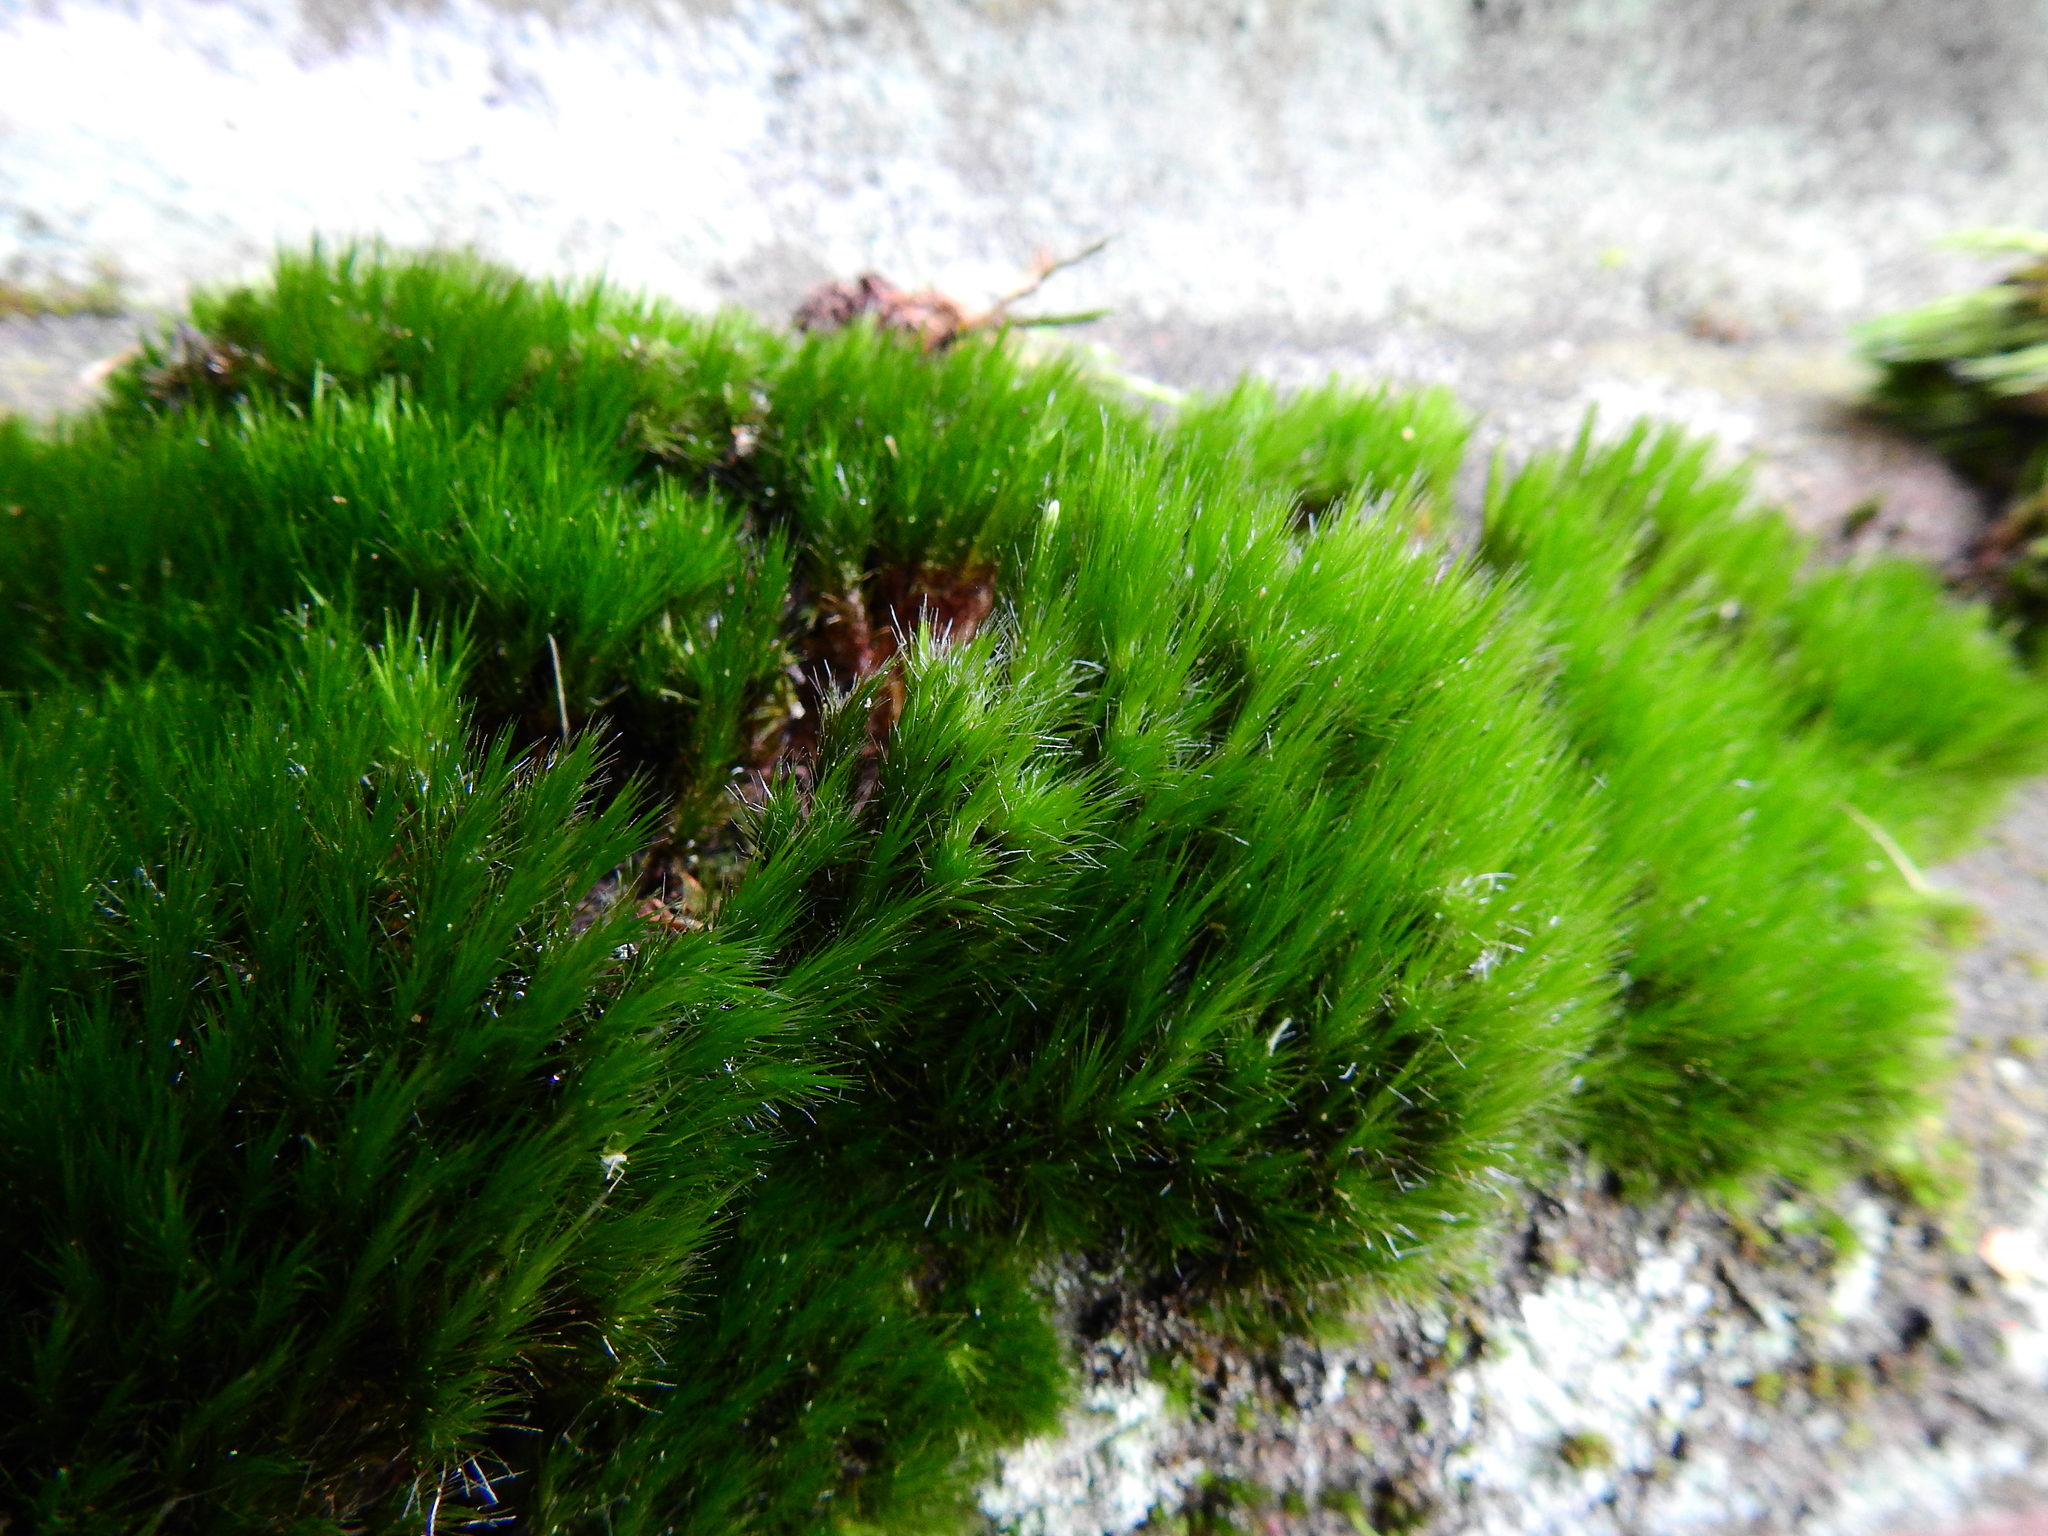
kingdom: Plantae
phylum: Bryophyta
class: Bryopsida
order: Dicranales
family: Leucobryaceae
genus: Campylopus
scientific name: Campylopus introflexus
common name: Heath star moss
